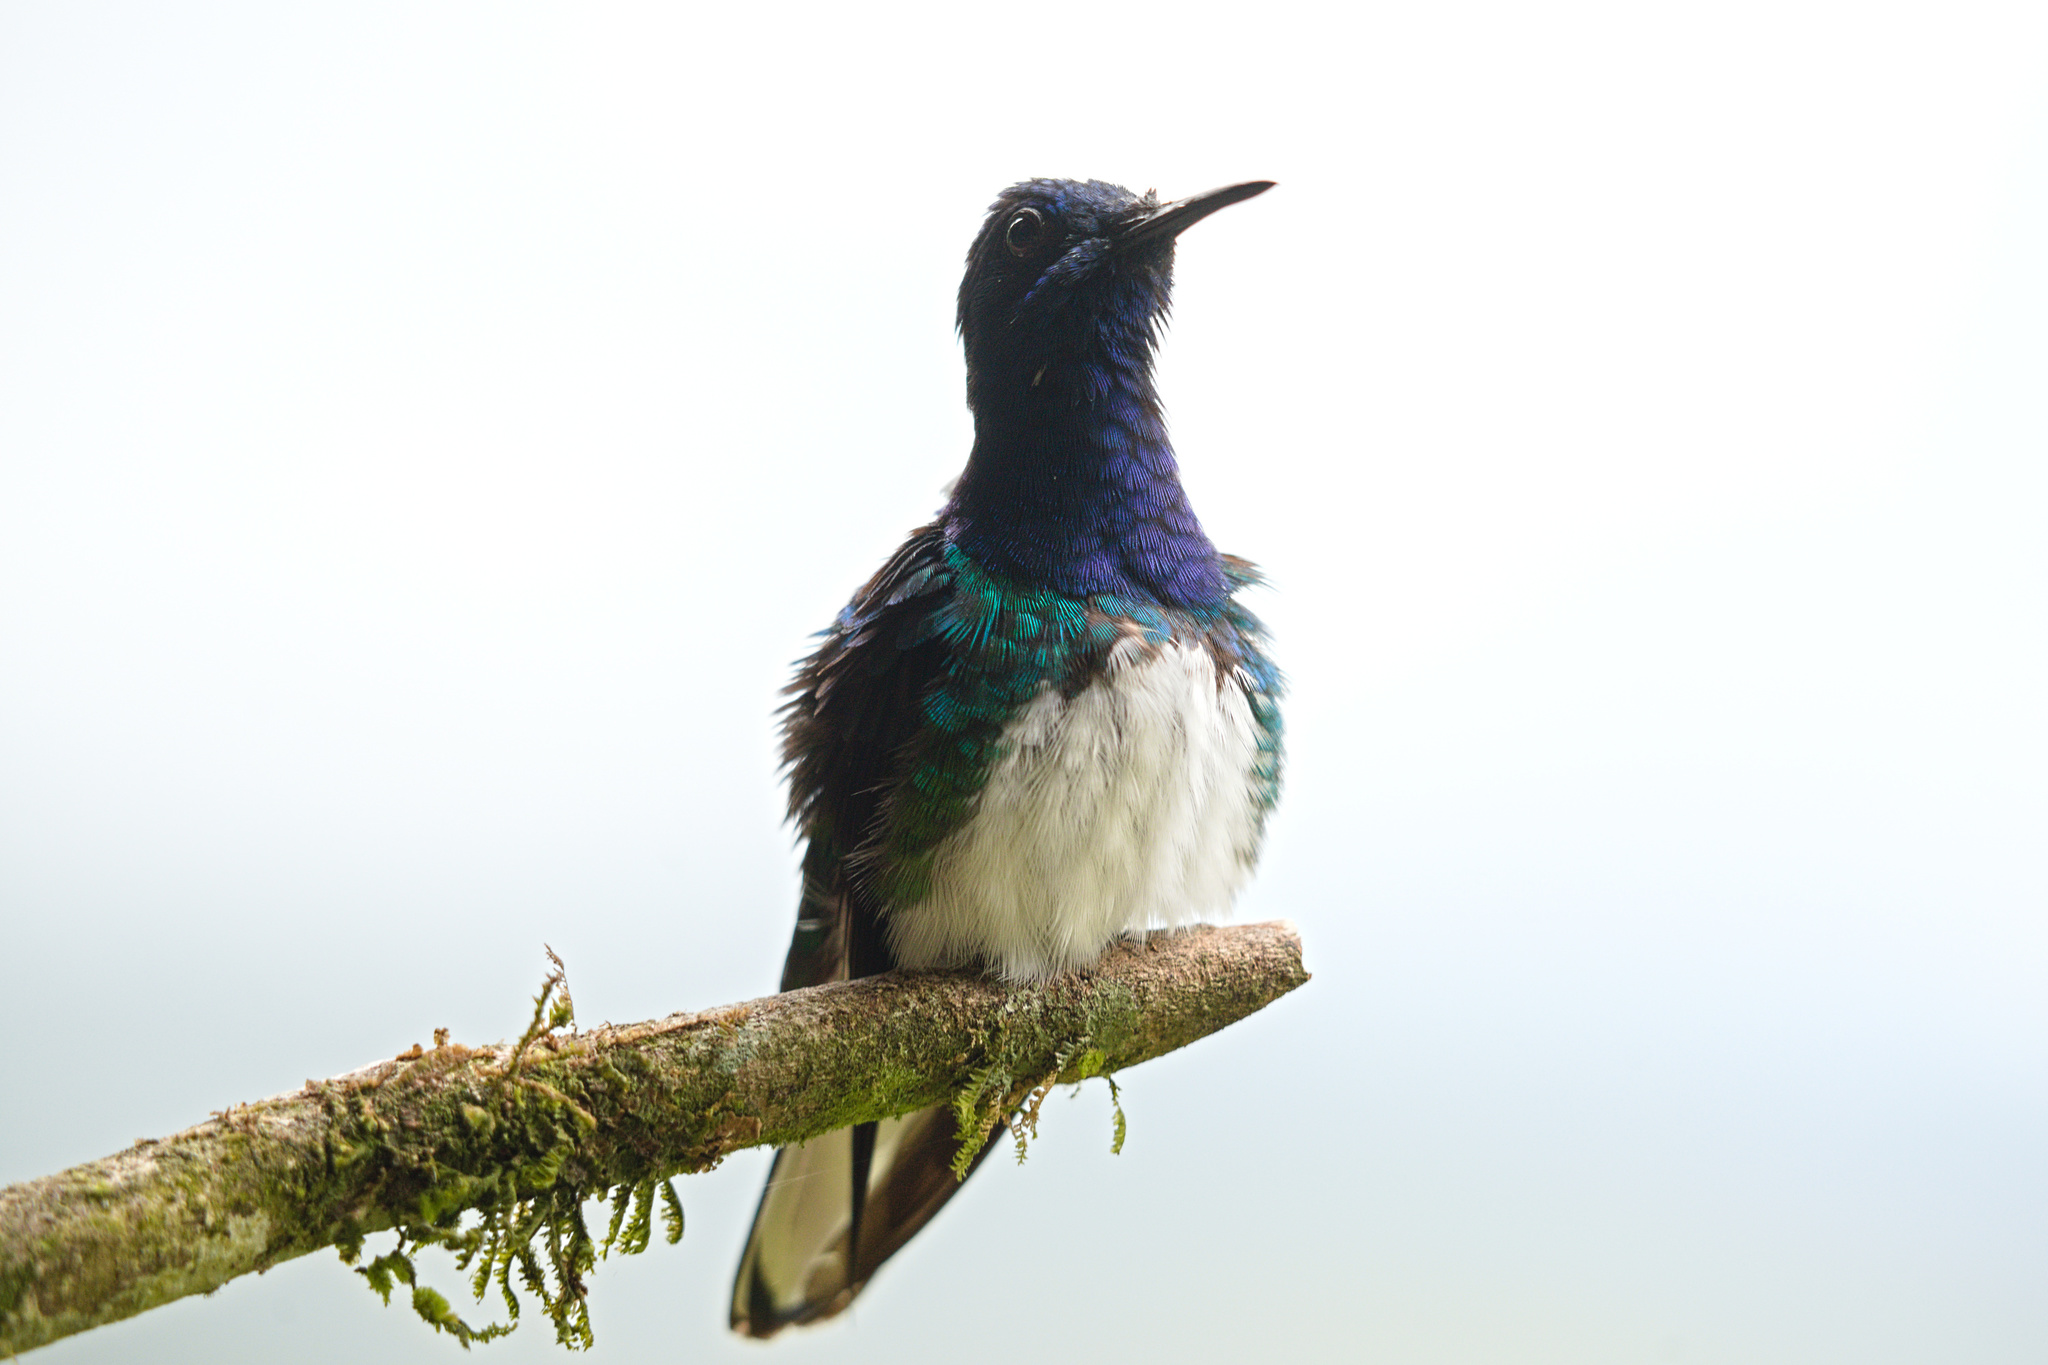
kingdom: Animalia
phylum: Chordata
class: Aves
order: Apodiformes
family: Trochilidae
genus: Florisuga
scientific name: Florisuga mellivora
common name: White-necked jacobin
